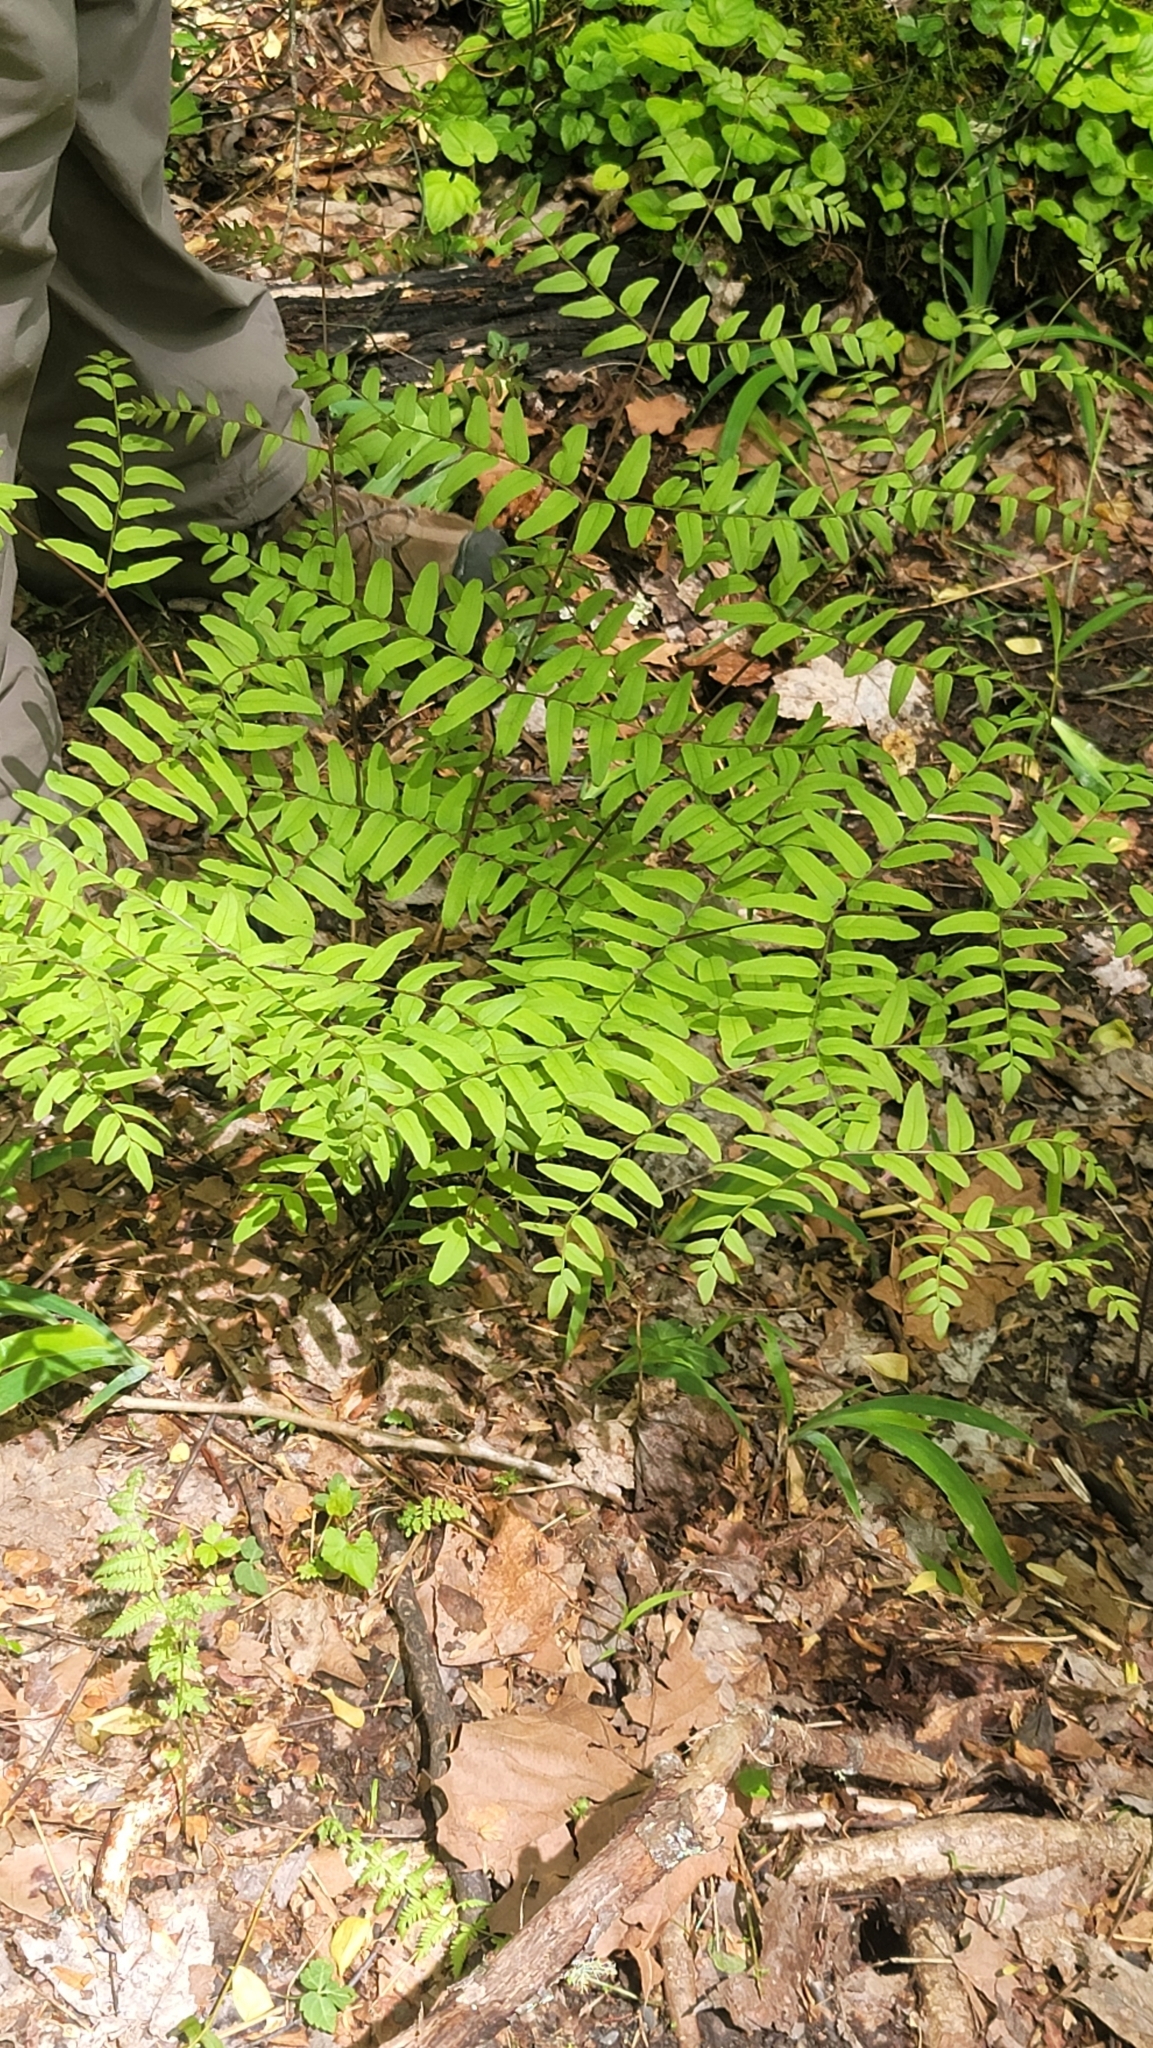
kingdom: Plantae
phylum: Tracheophyta
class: Polypodiopsida
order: Osmundales
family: Osmundaceae
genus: Osmunda
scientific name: Osmunda spectabilis
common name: American royal fern
